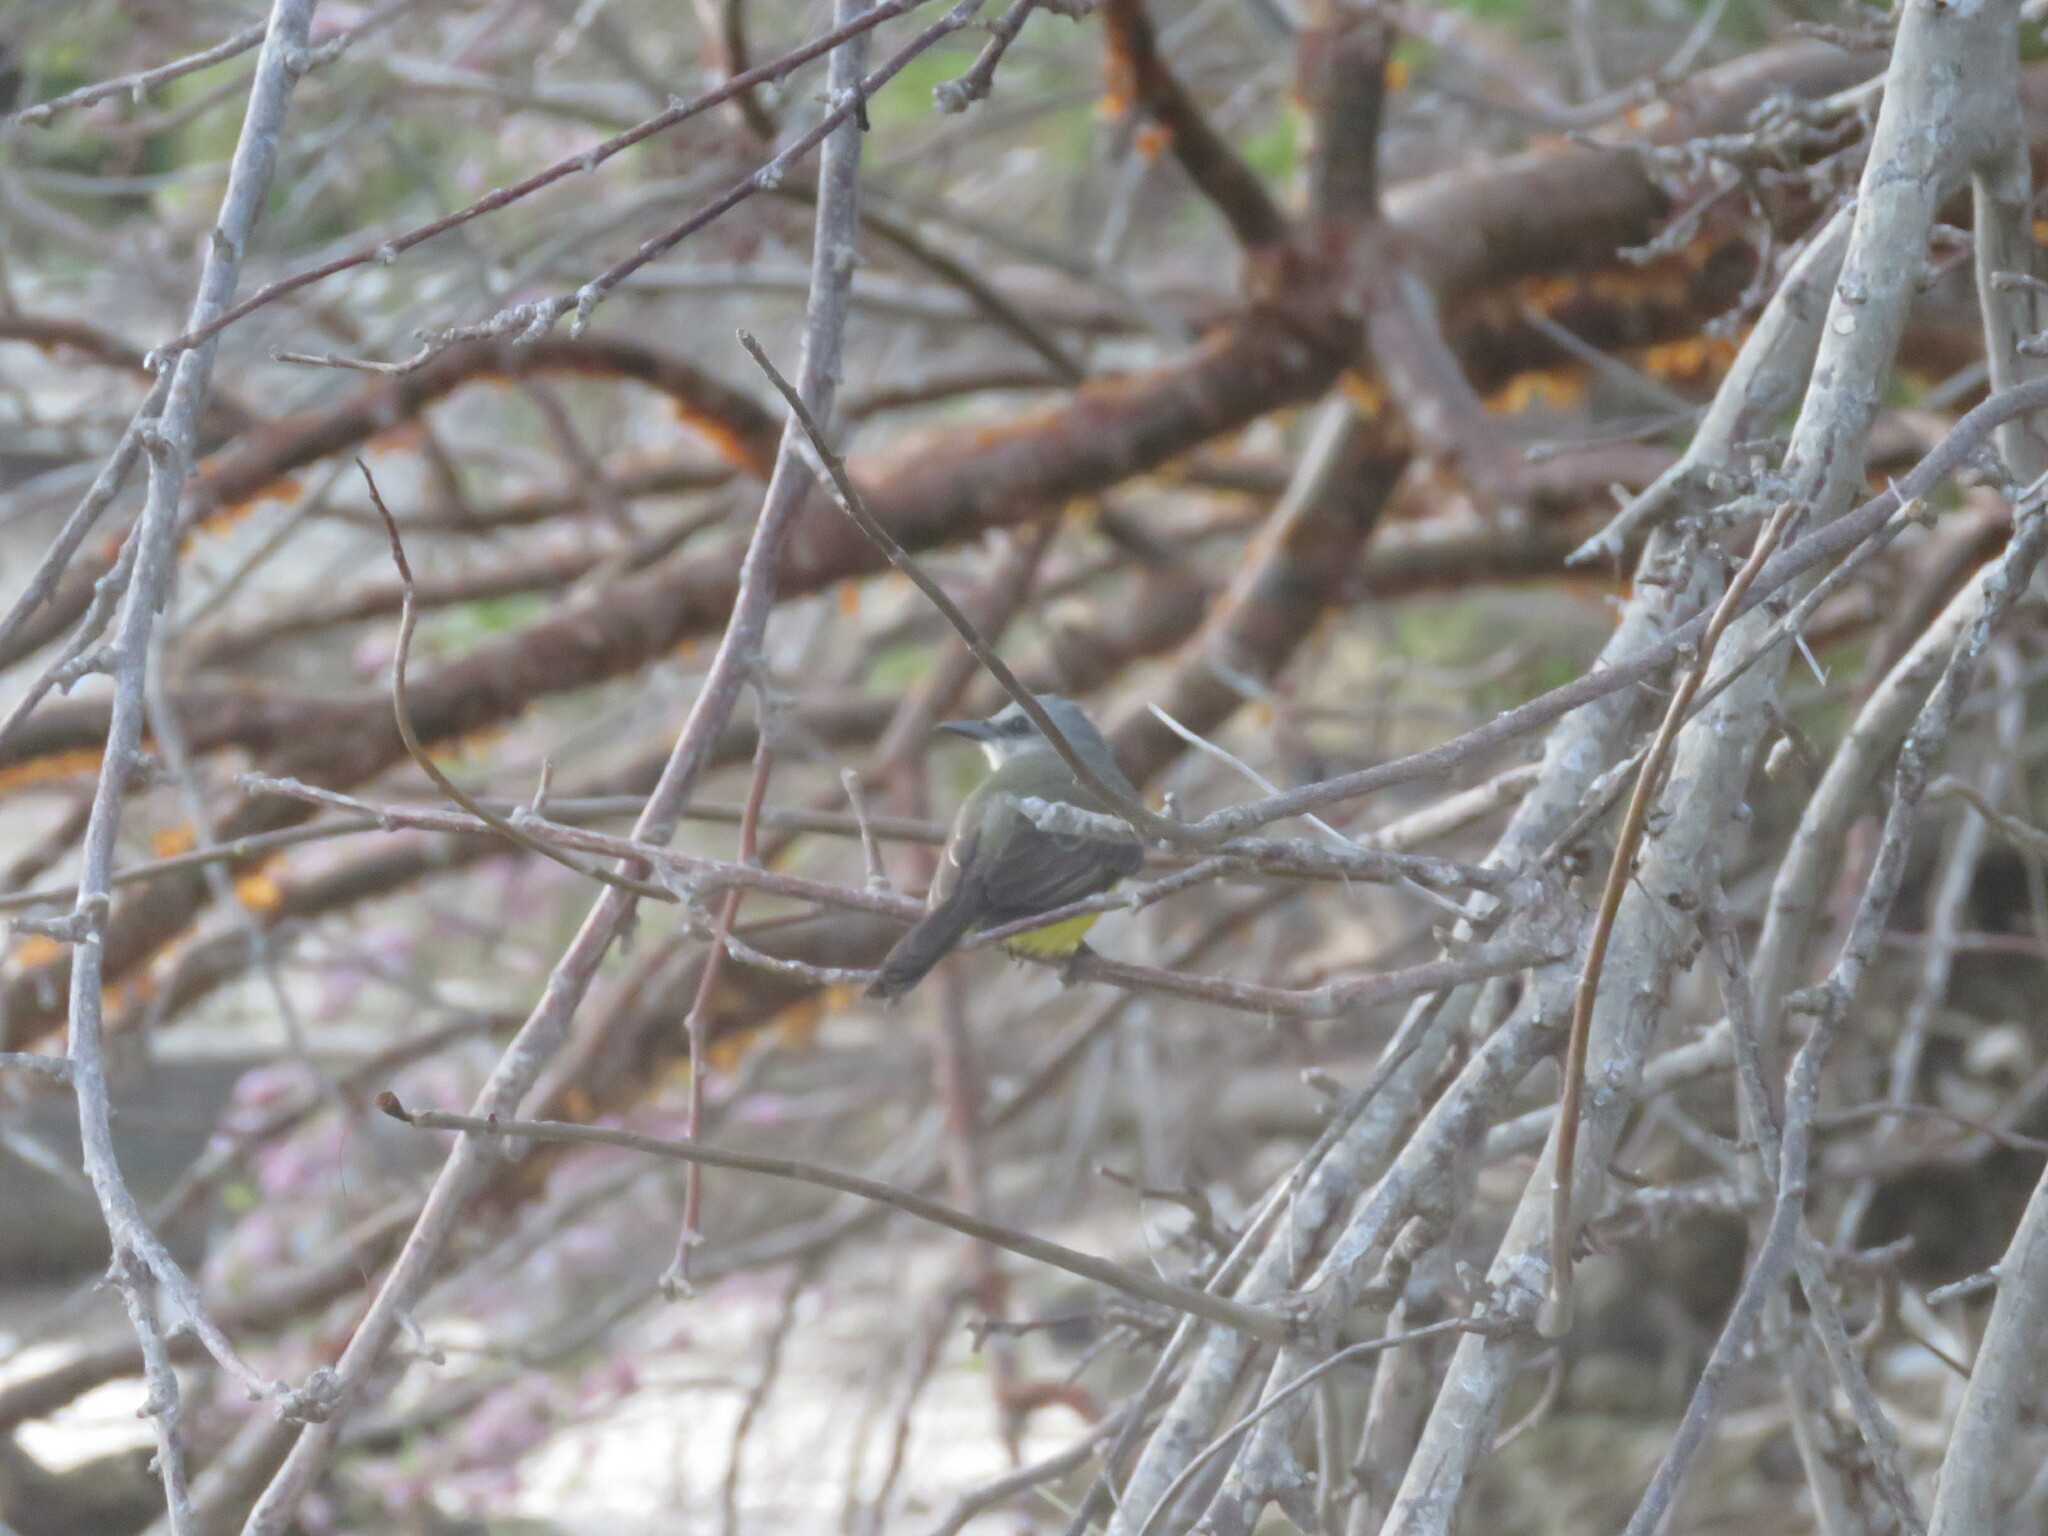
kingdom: Animalia
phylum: Chordata
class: Aves
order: Passeriformes
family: Tyrannidae
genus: Tyrannus
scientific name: Tyrannus melancholicus
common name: Tropical kingbird
